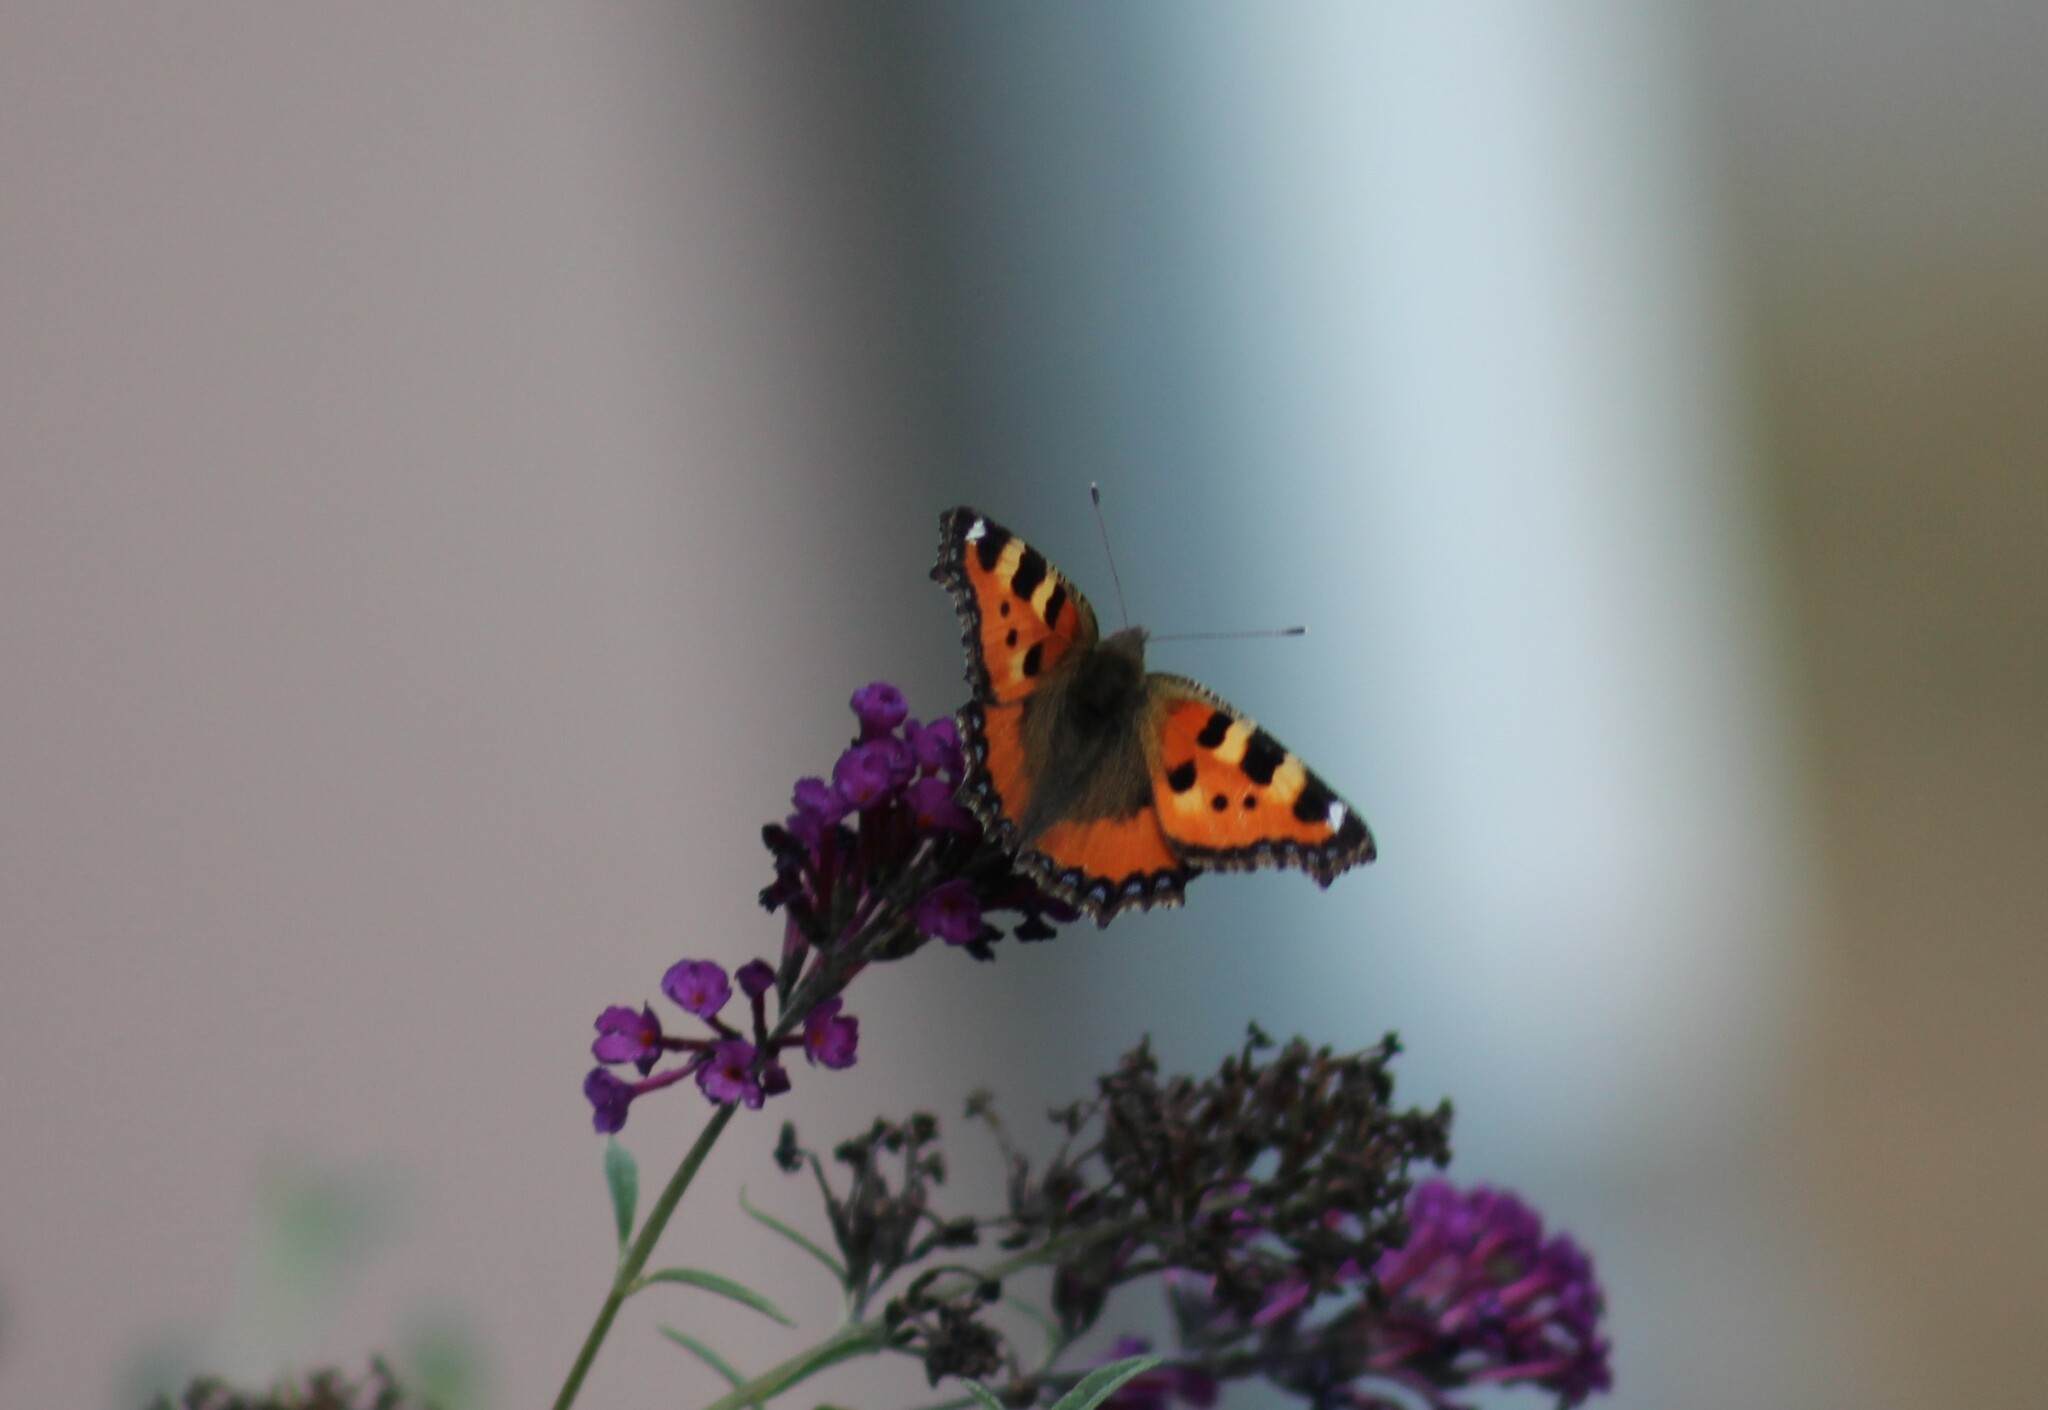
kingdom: Animalia
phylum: Arthropoda
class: Insecta
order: Lepidoptera
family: Nymphalidae
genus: Aglais
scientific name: Aglais urticae
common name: Small tortoiseshell
